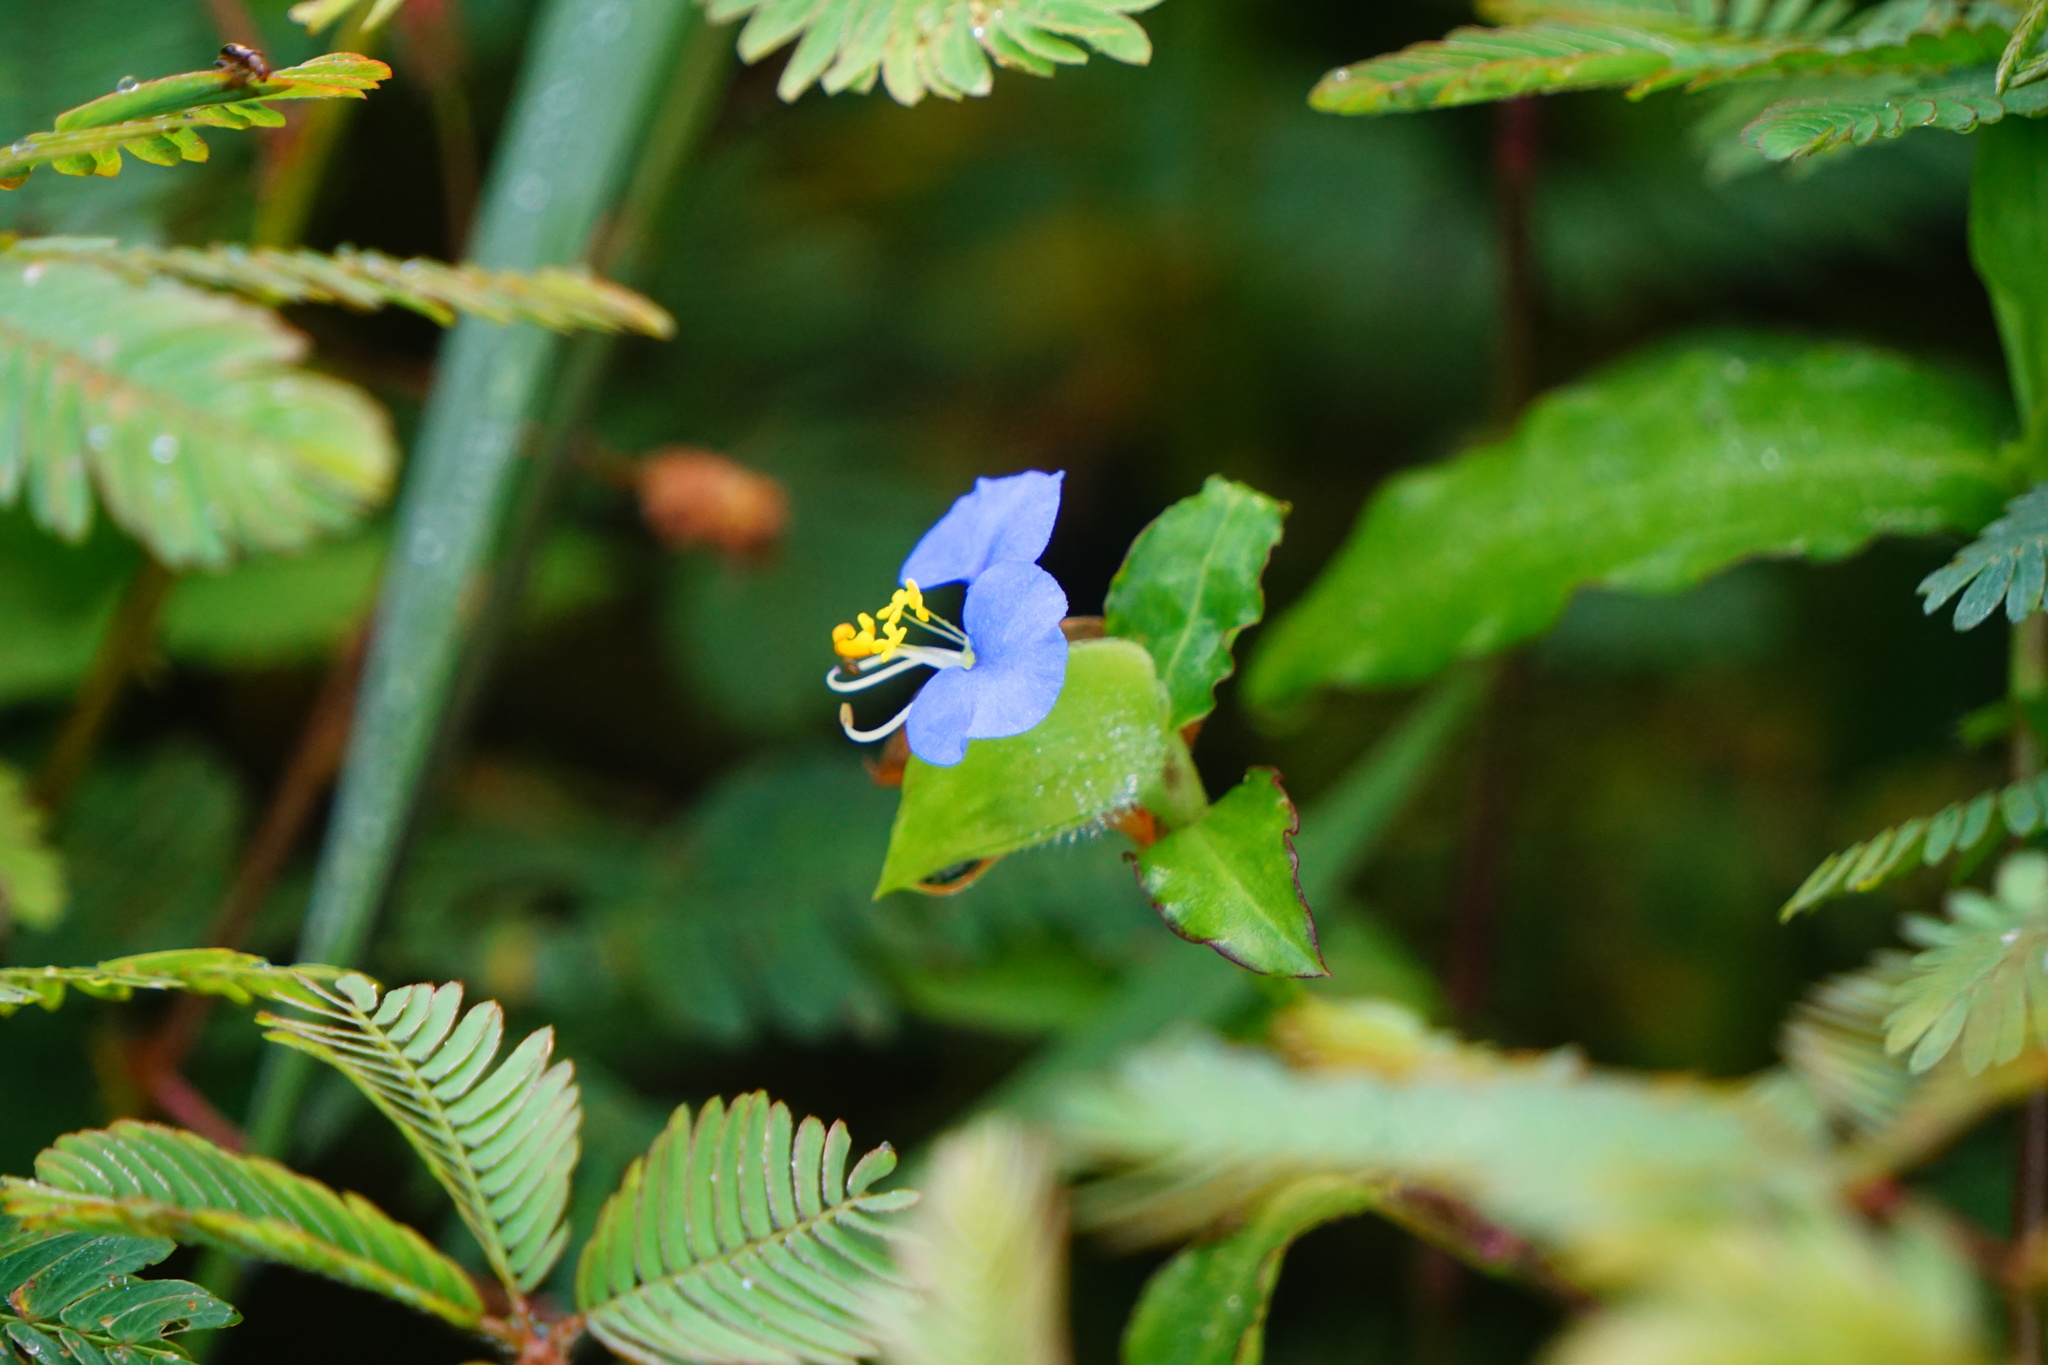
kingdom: Plantae
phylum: Tracheophyta
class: Liliopsida
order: Commelinales
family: Commelinaceae
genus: Commelina
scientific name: Commelina erecta
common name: Blousel blommetjie
